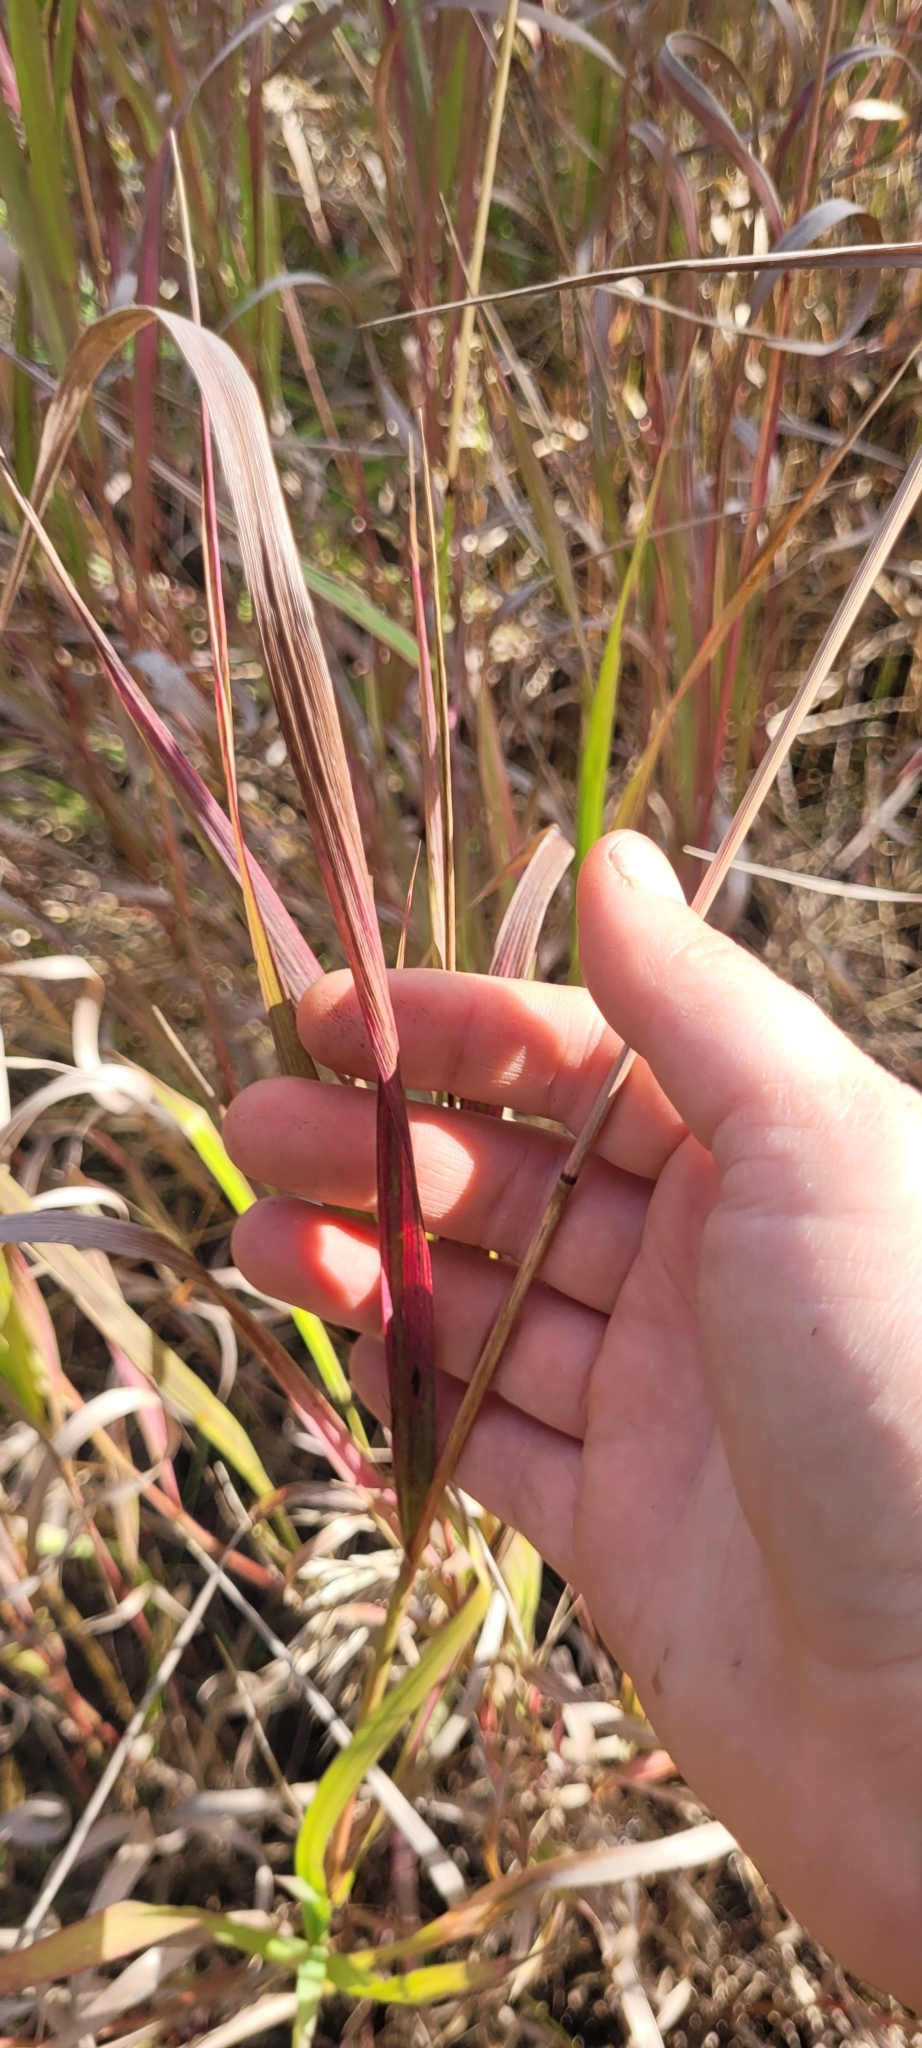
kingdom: Plantae
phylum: Tracheophyta
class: Liliopsida
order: Poales
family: Poaceae
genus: Bromus
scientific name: Bromus inermis
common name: Smooth brome
